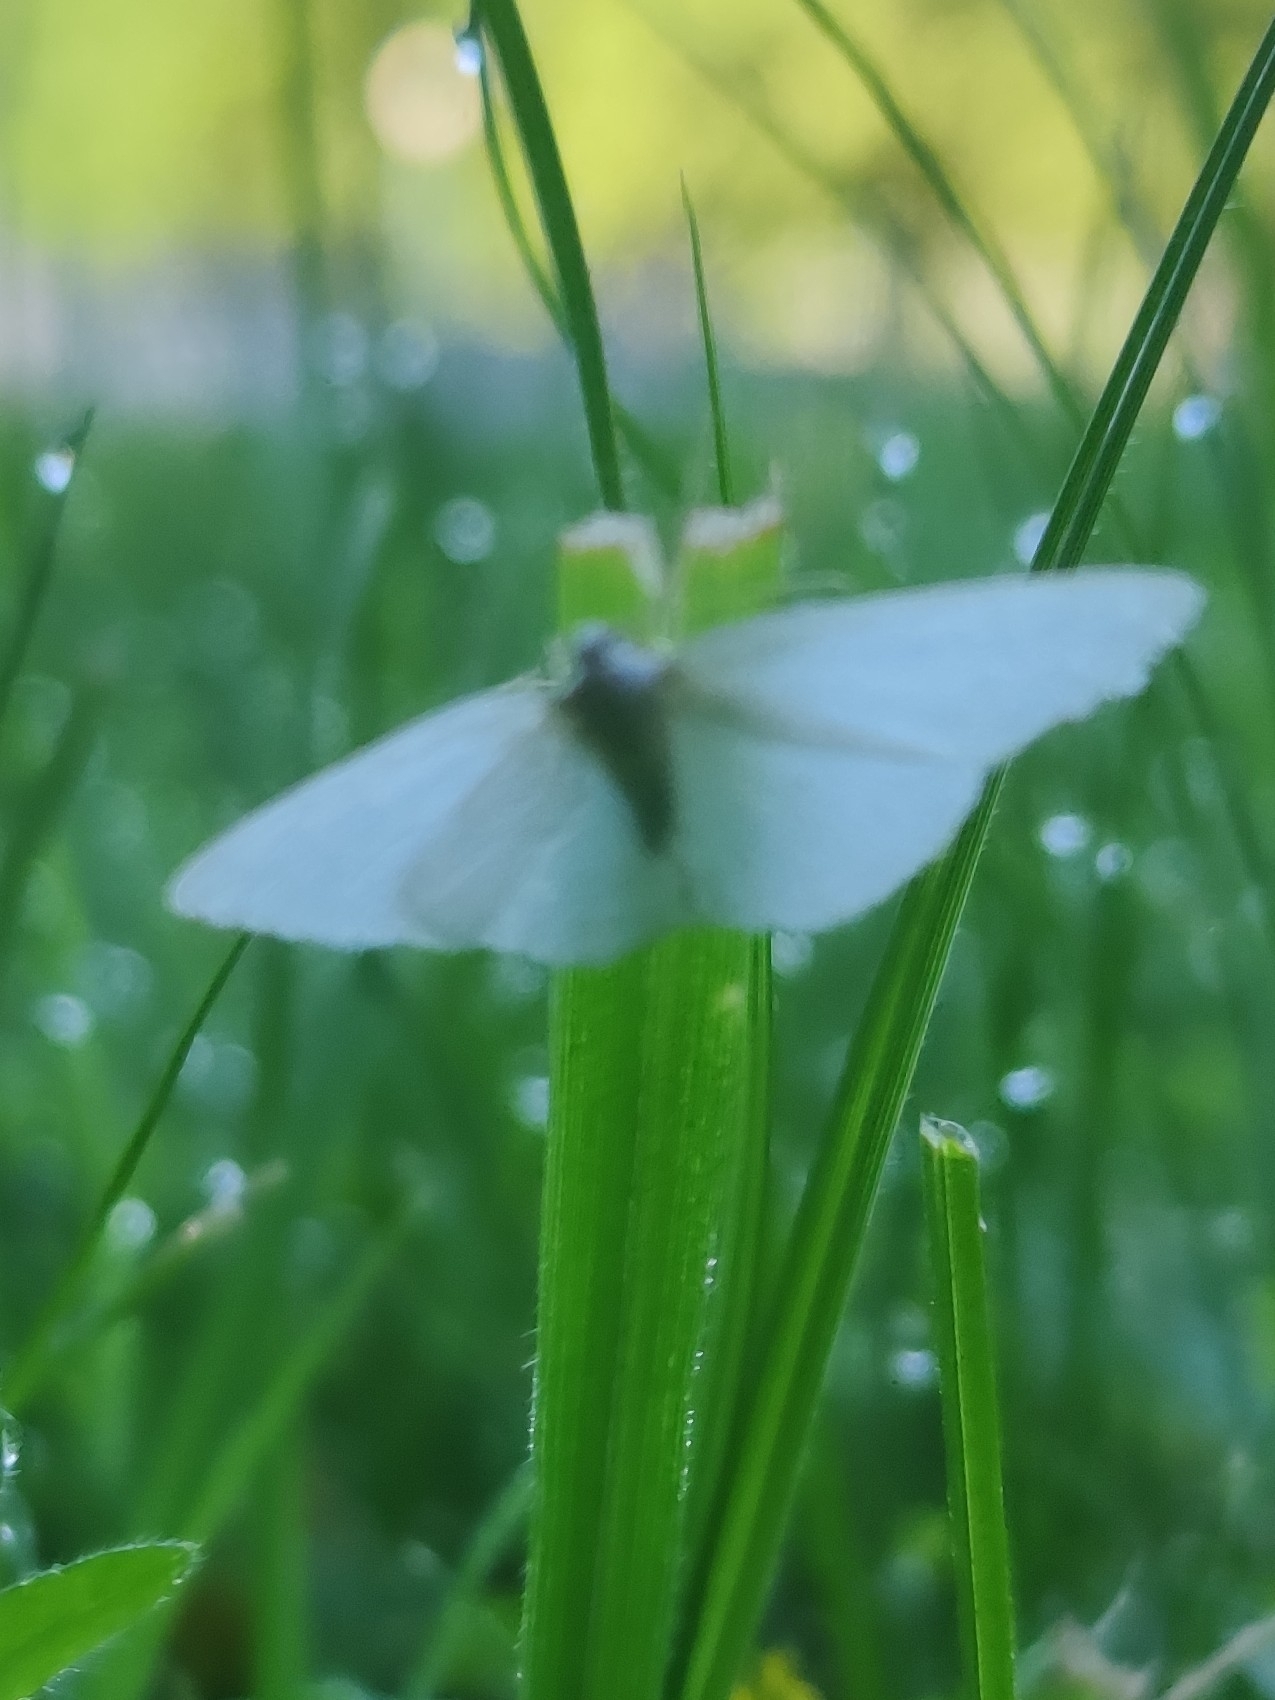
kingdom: Animalia
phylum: Arthropoda
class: Insecta
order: Lepidoptera
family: Geometridae
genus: Geometra
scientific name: Geometra papilionaria
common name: Large emerald
